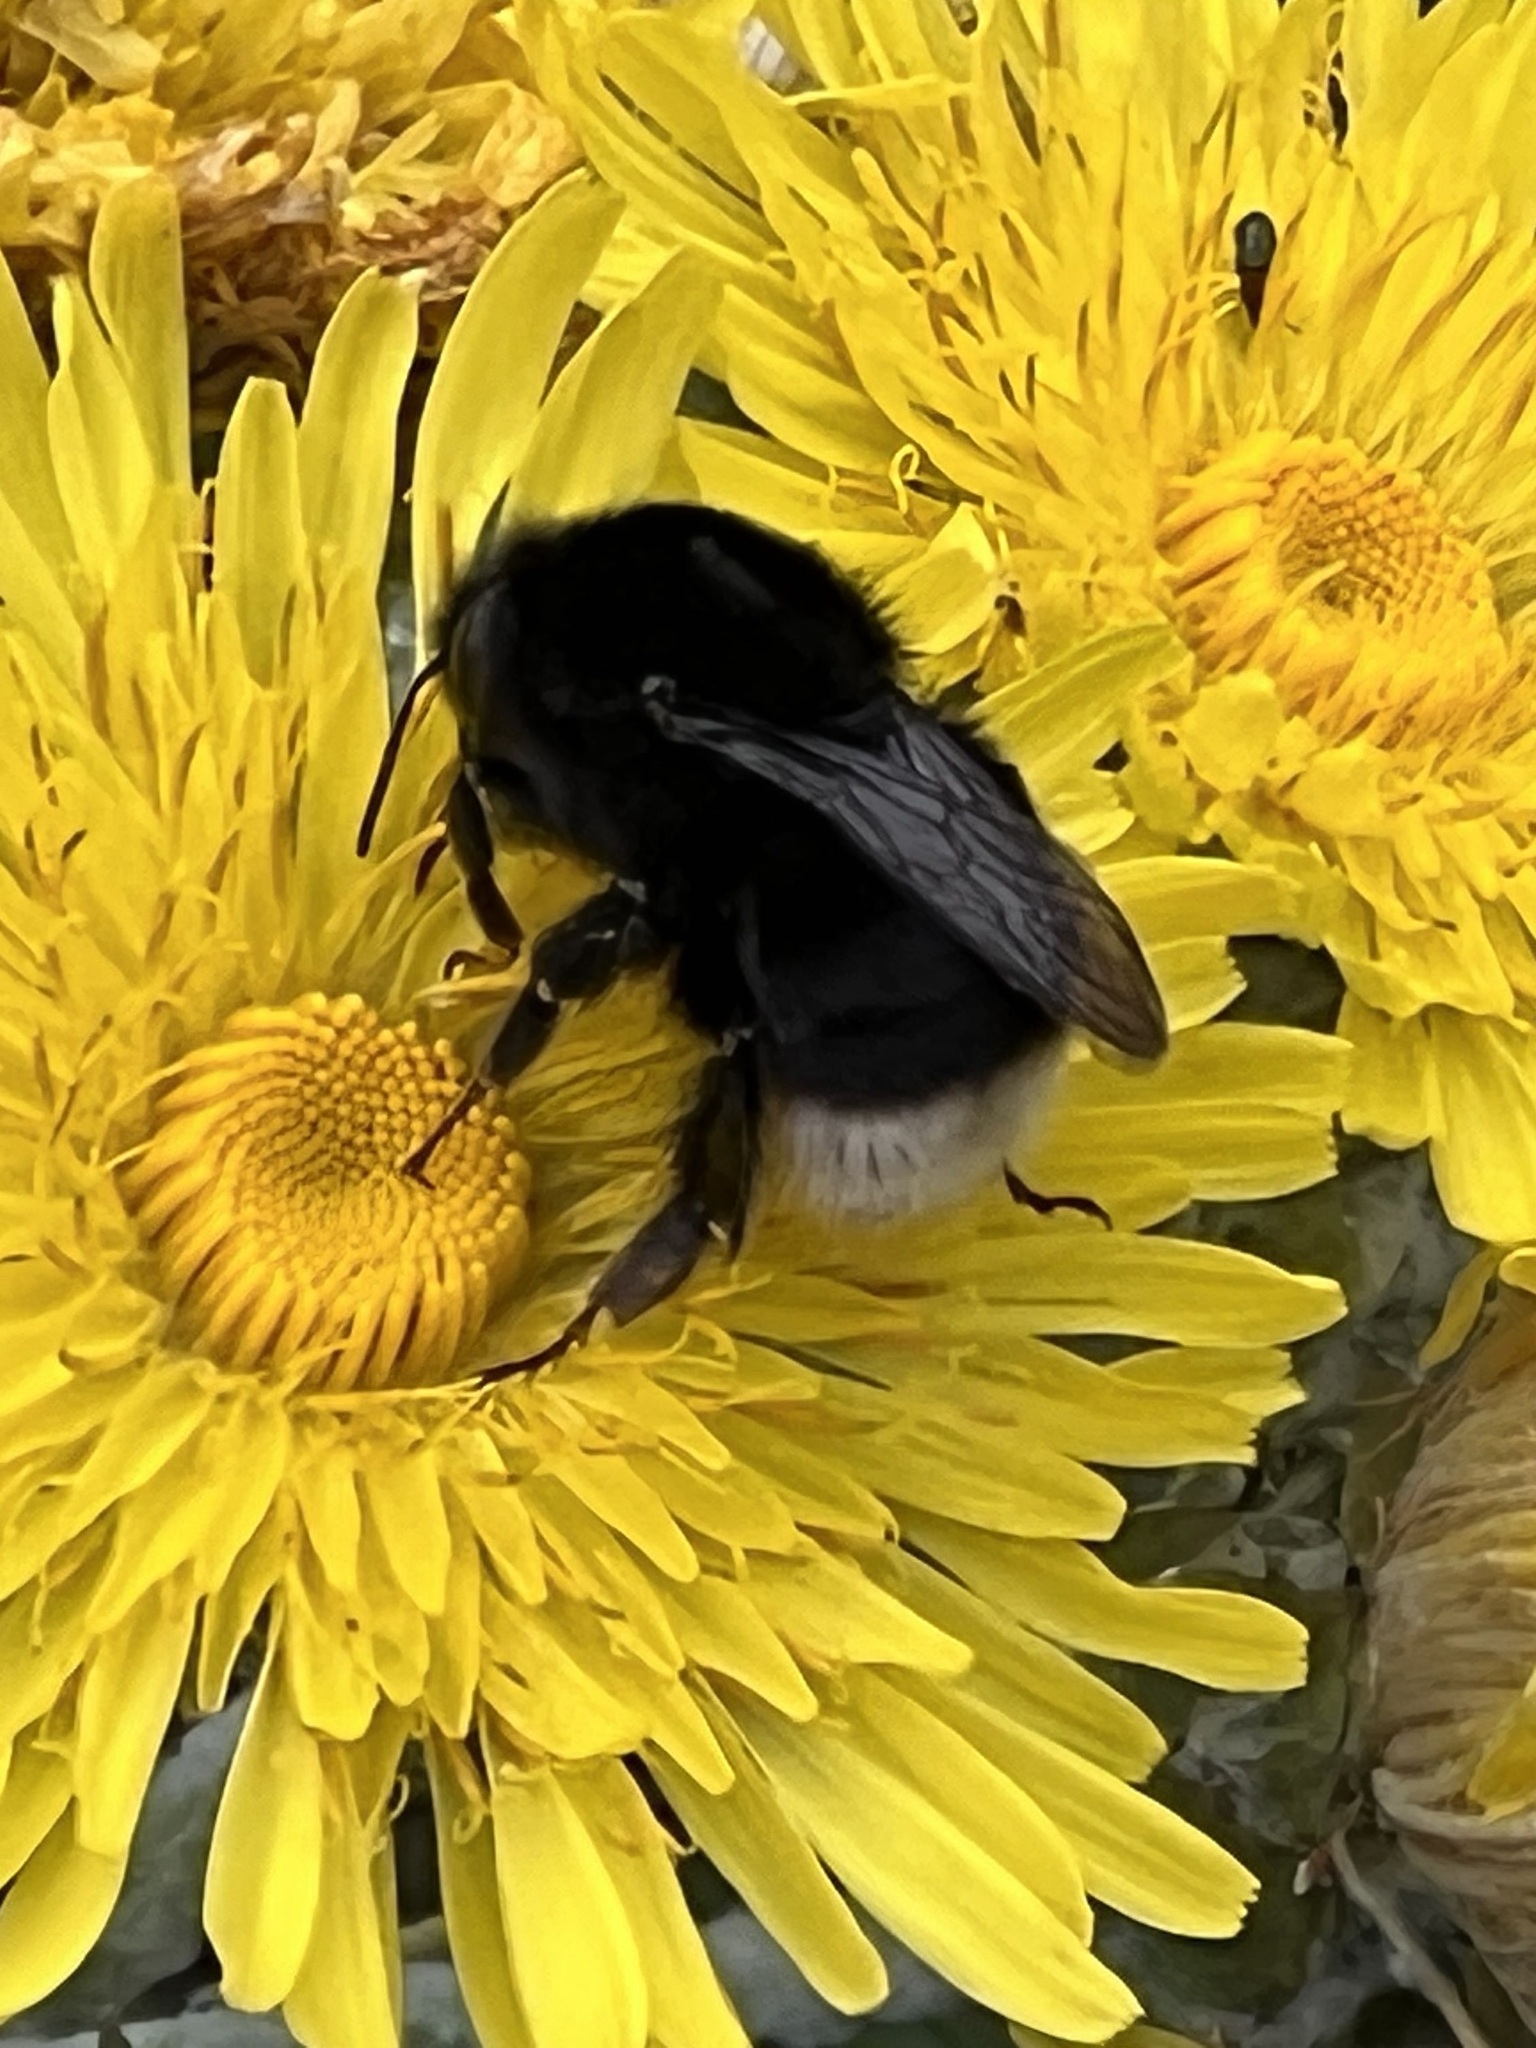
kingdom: Animalia
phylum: Arthropoda
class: Insecta
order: Hymenoptera
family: Apidae
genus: Bombus
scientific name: Bombus terrestris
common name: Buff-tailed bumblebee
